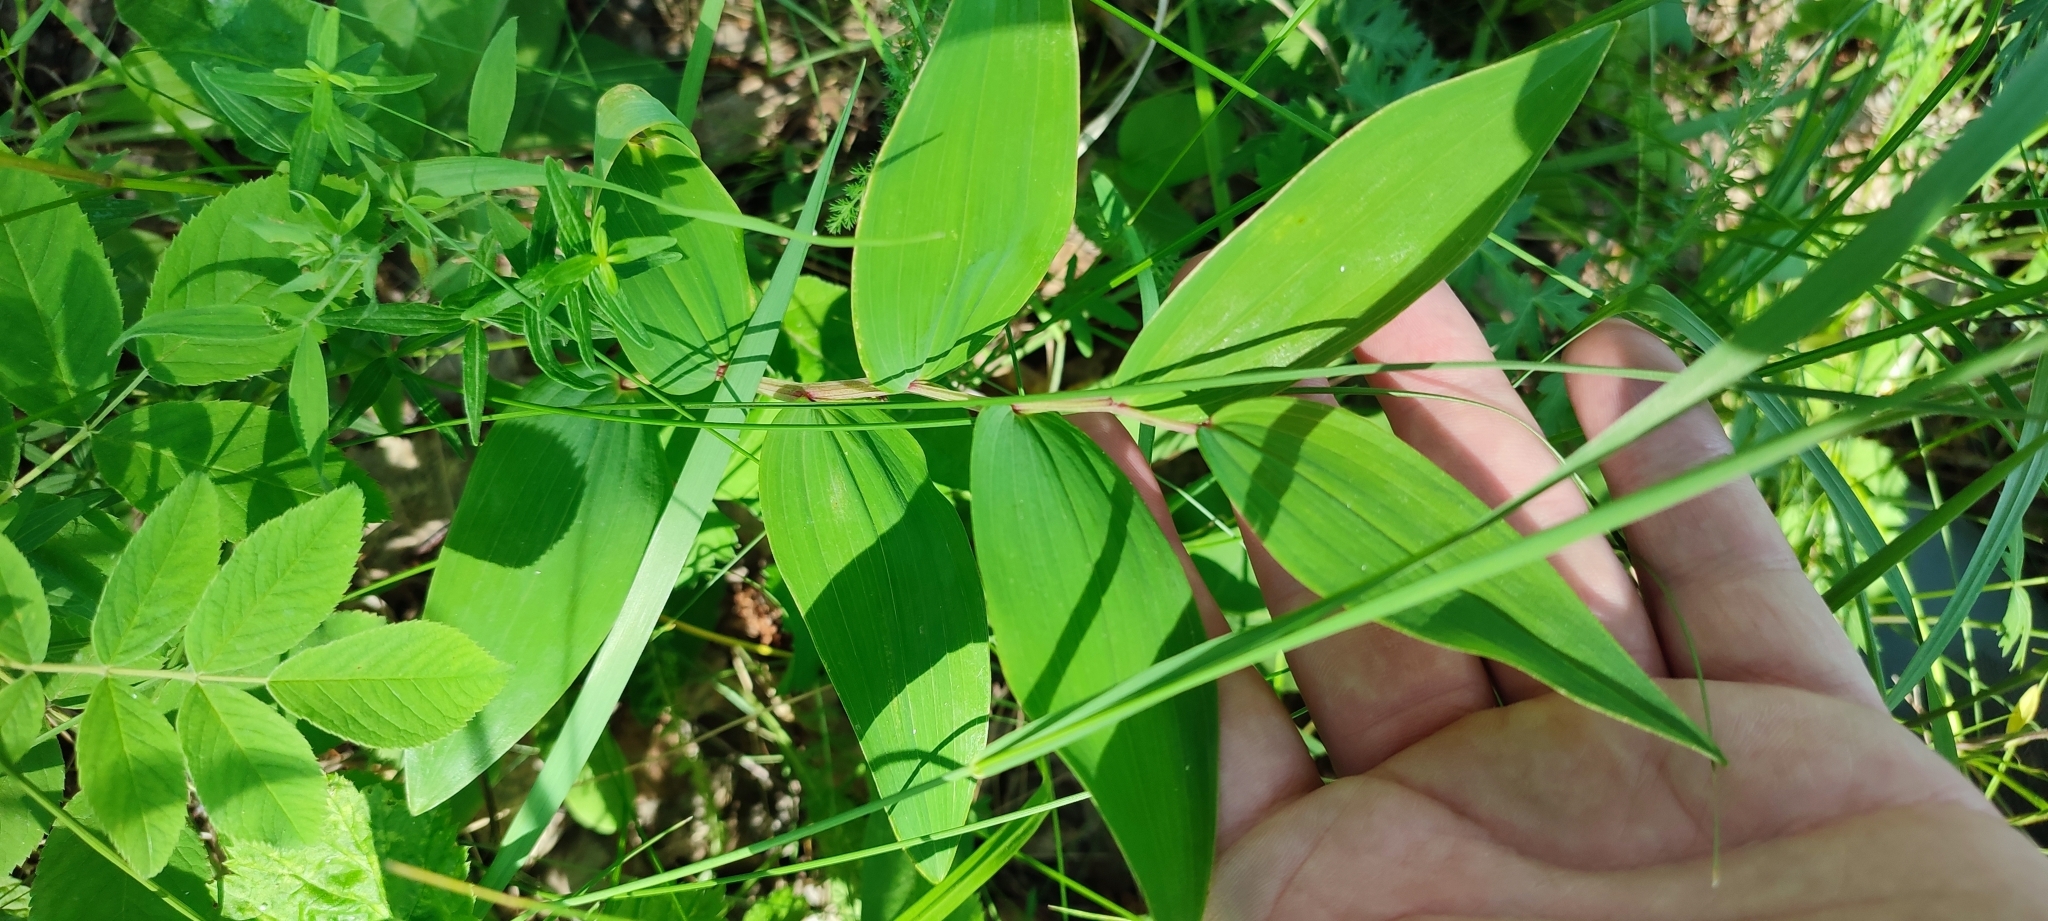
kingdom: Plantae
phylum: Tracheophyta
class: Liliopsida
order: Asparagales
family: Asparagaceae
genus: Polygonatum
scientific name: Polygonatum odoratum
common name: Angular solomon's-seal
